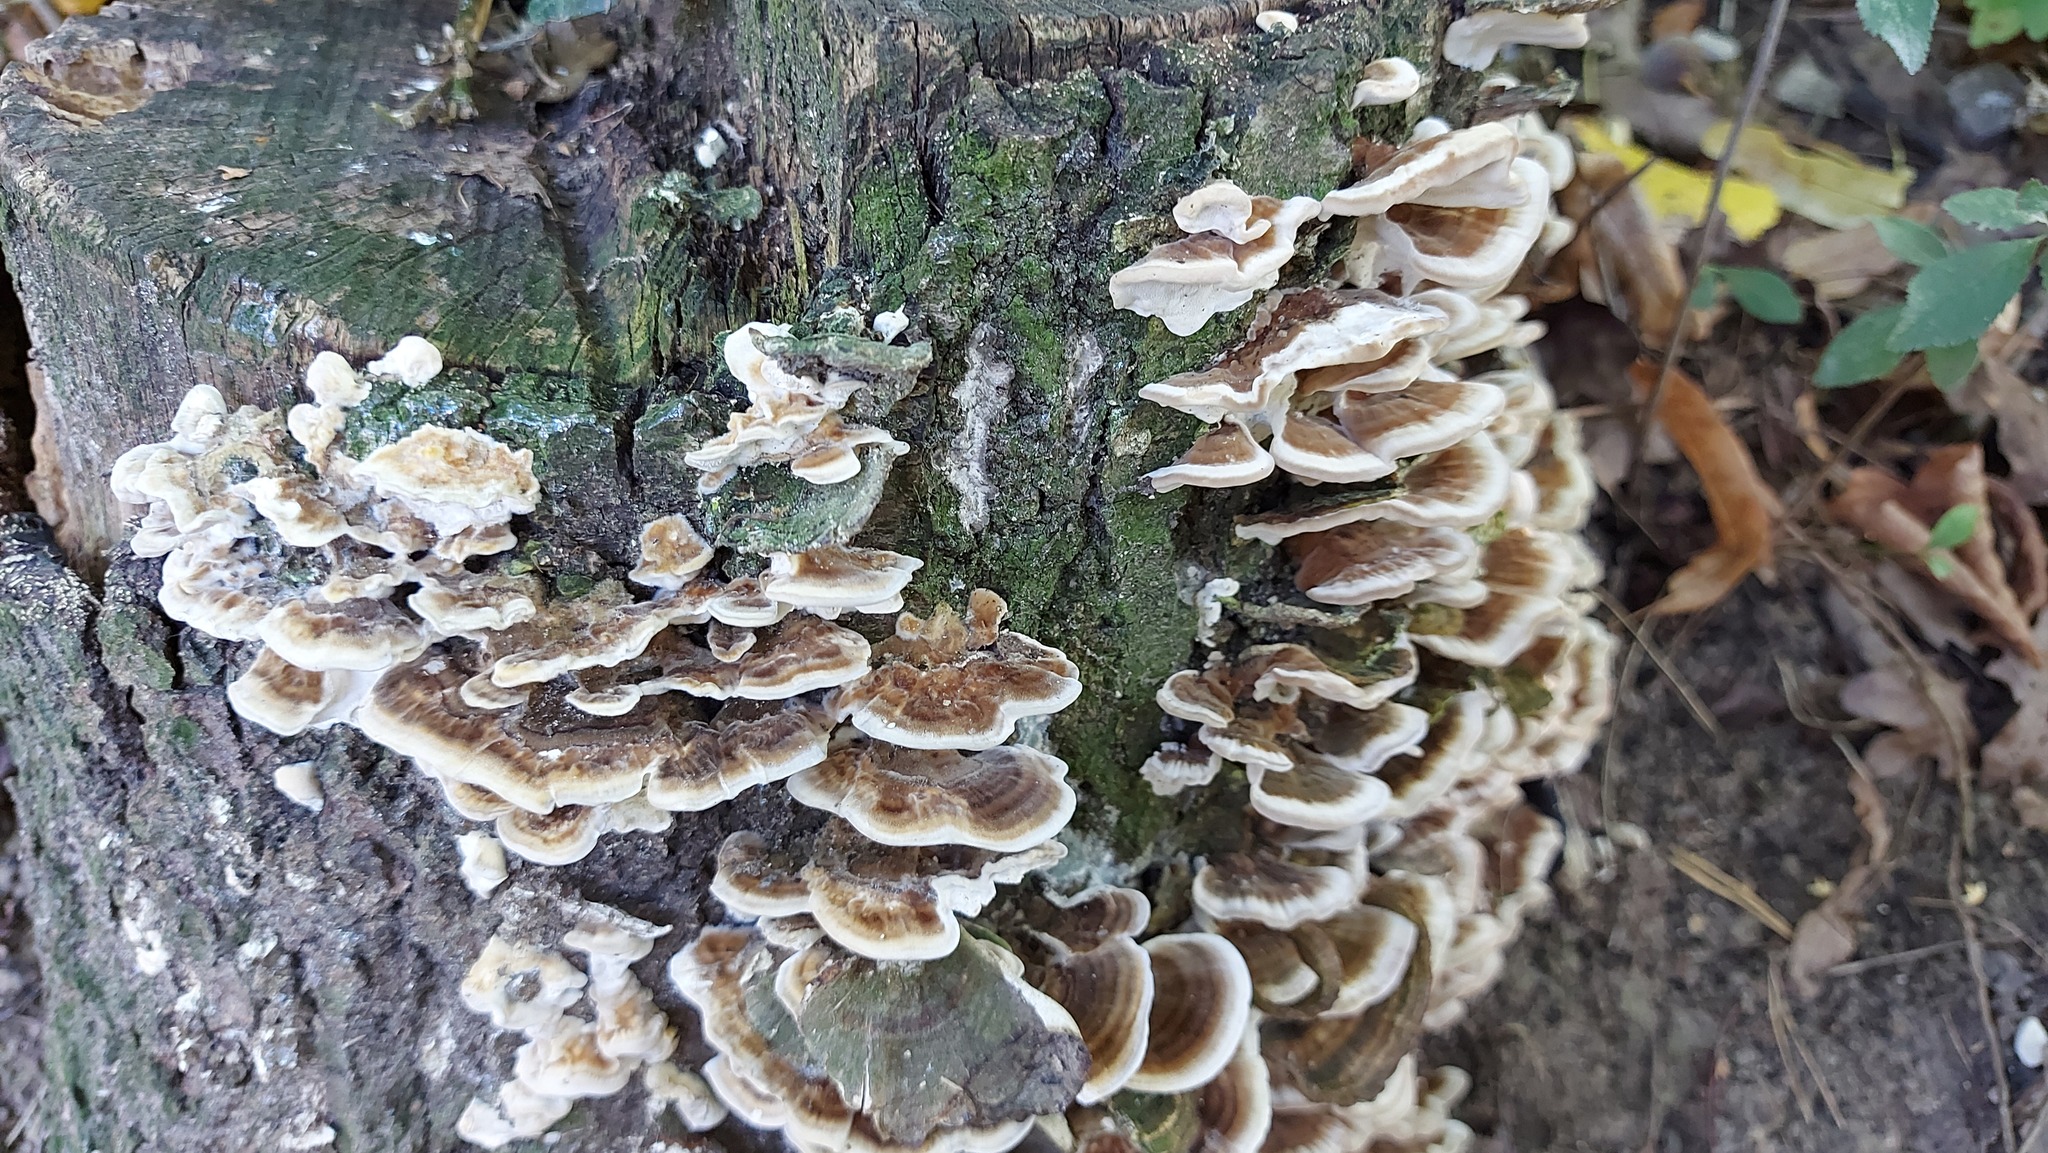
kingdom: Fungi
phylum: Basidiomycota
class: Agaricomycetes
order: Polyporales
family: Polyporaceae
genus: Trametes
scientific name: Trametes versicolor
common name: Turkeytail
